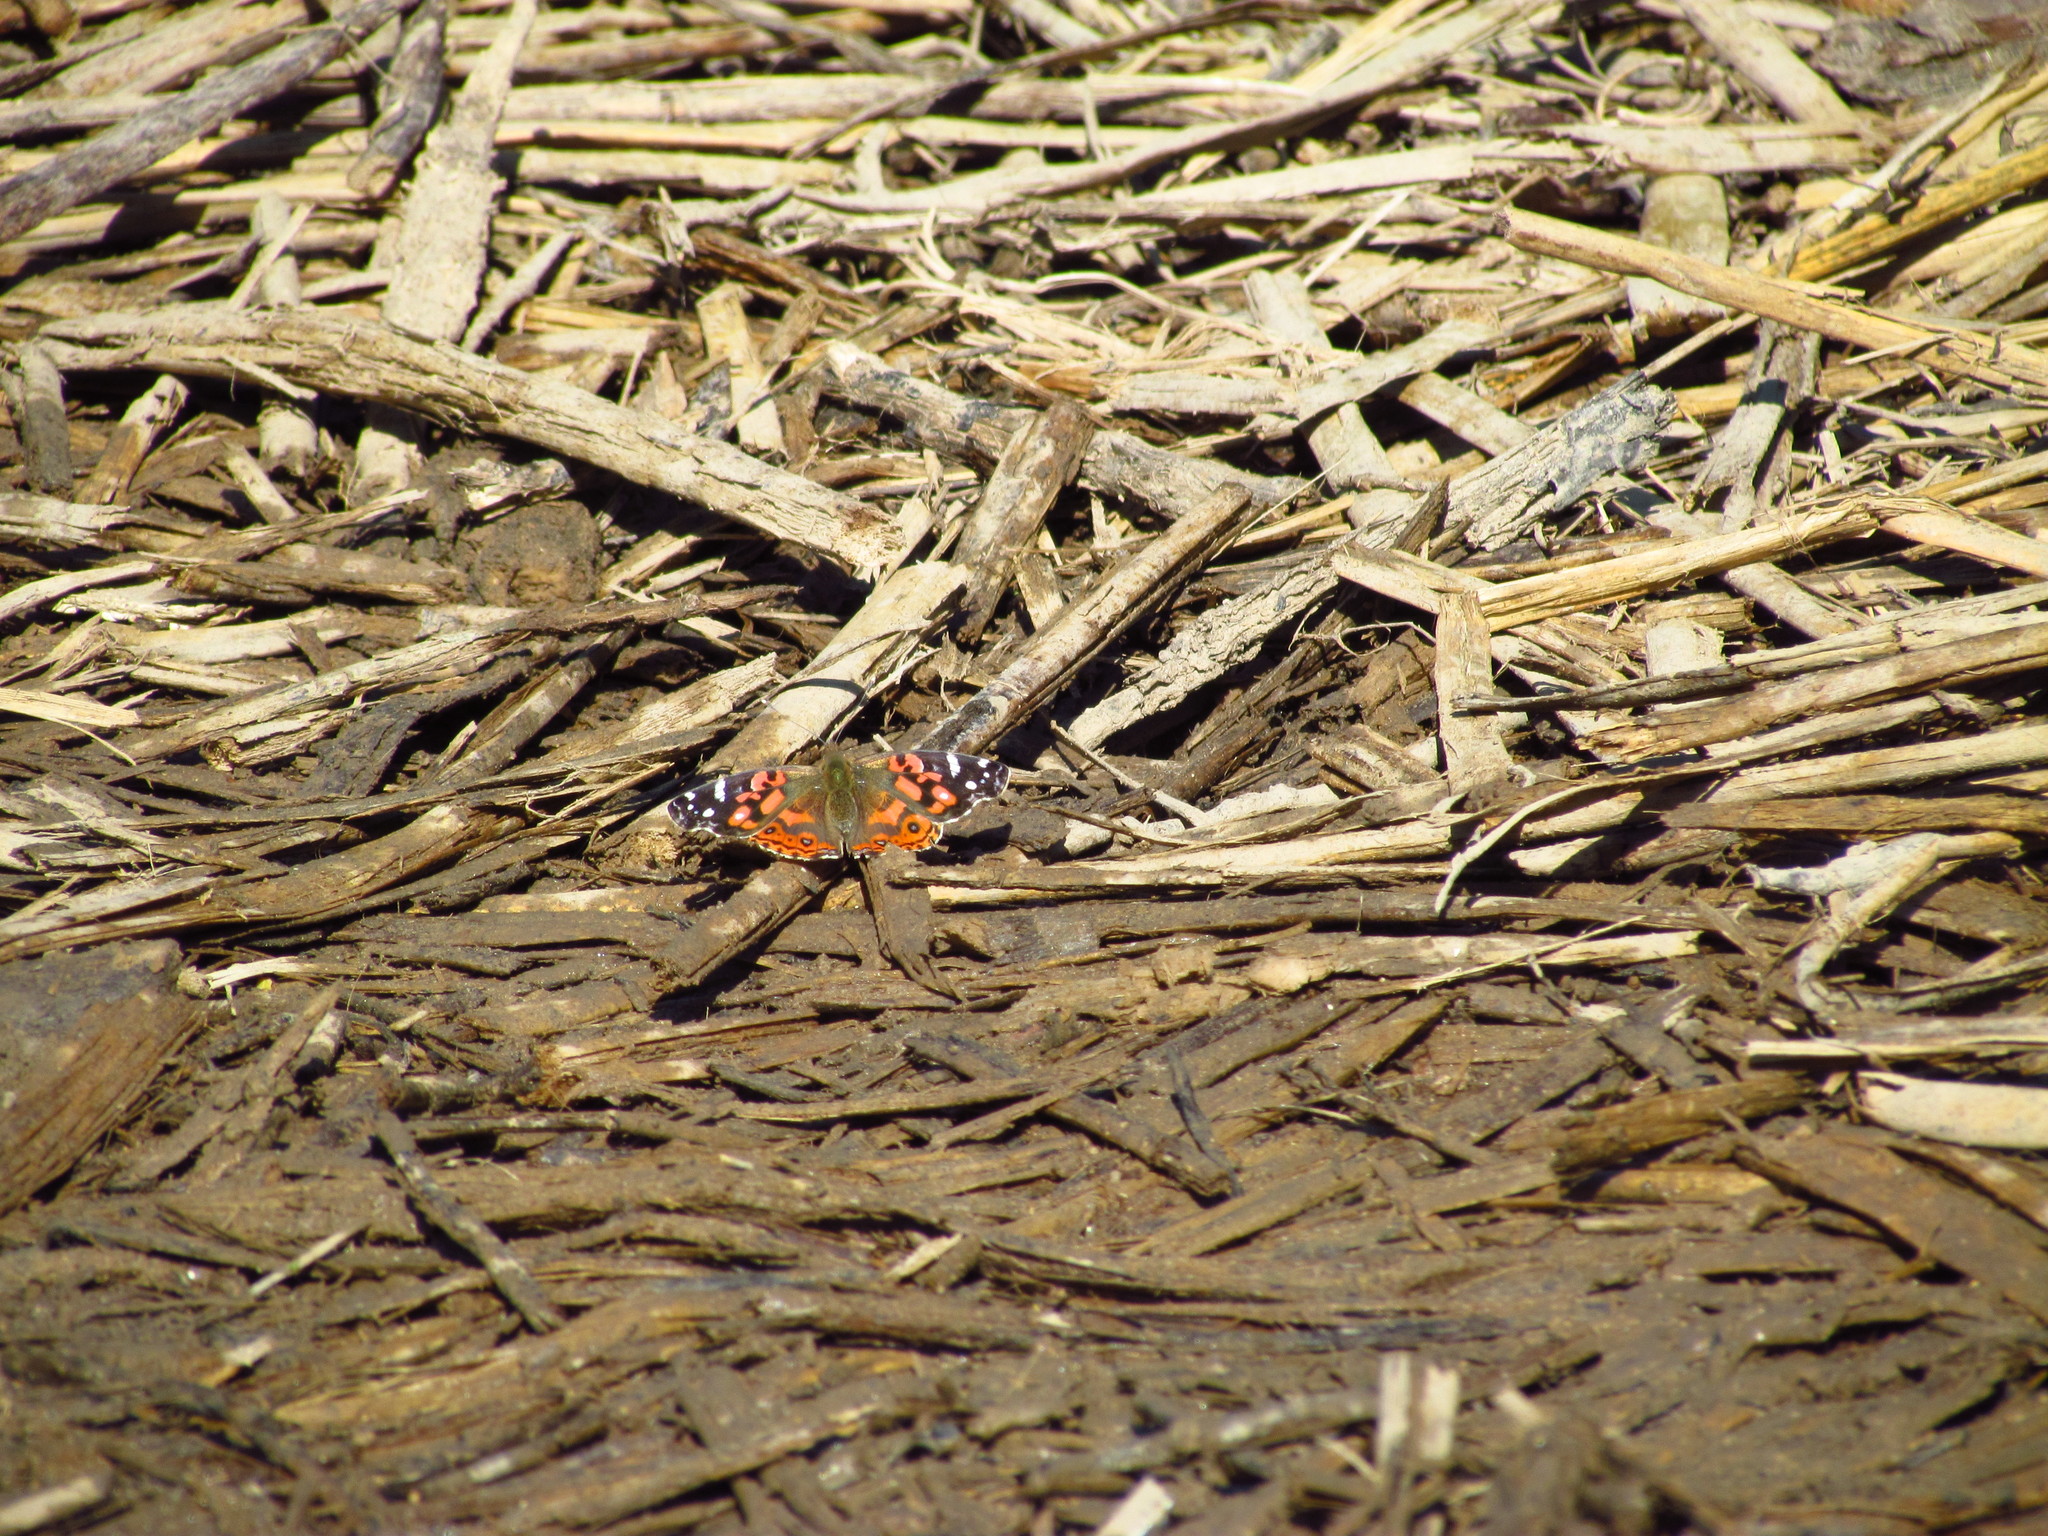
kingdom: Animalia
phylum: Arthropoda
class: Insecta
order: Lepidoptera
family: Nymphalidae
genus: Vanessa
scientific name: Vanessa braziliensis
